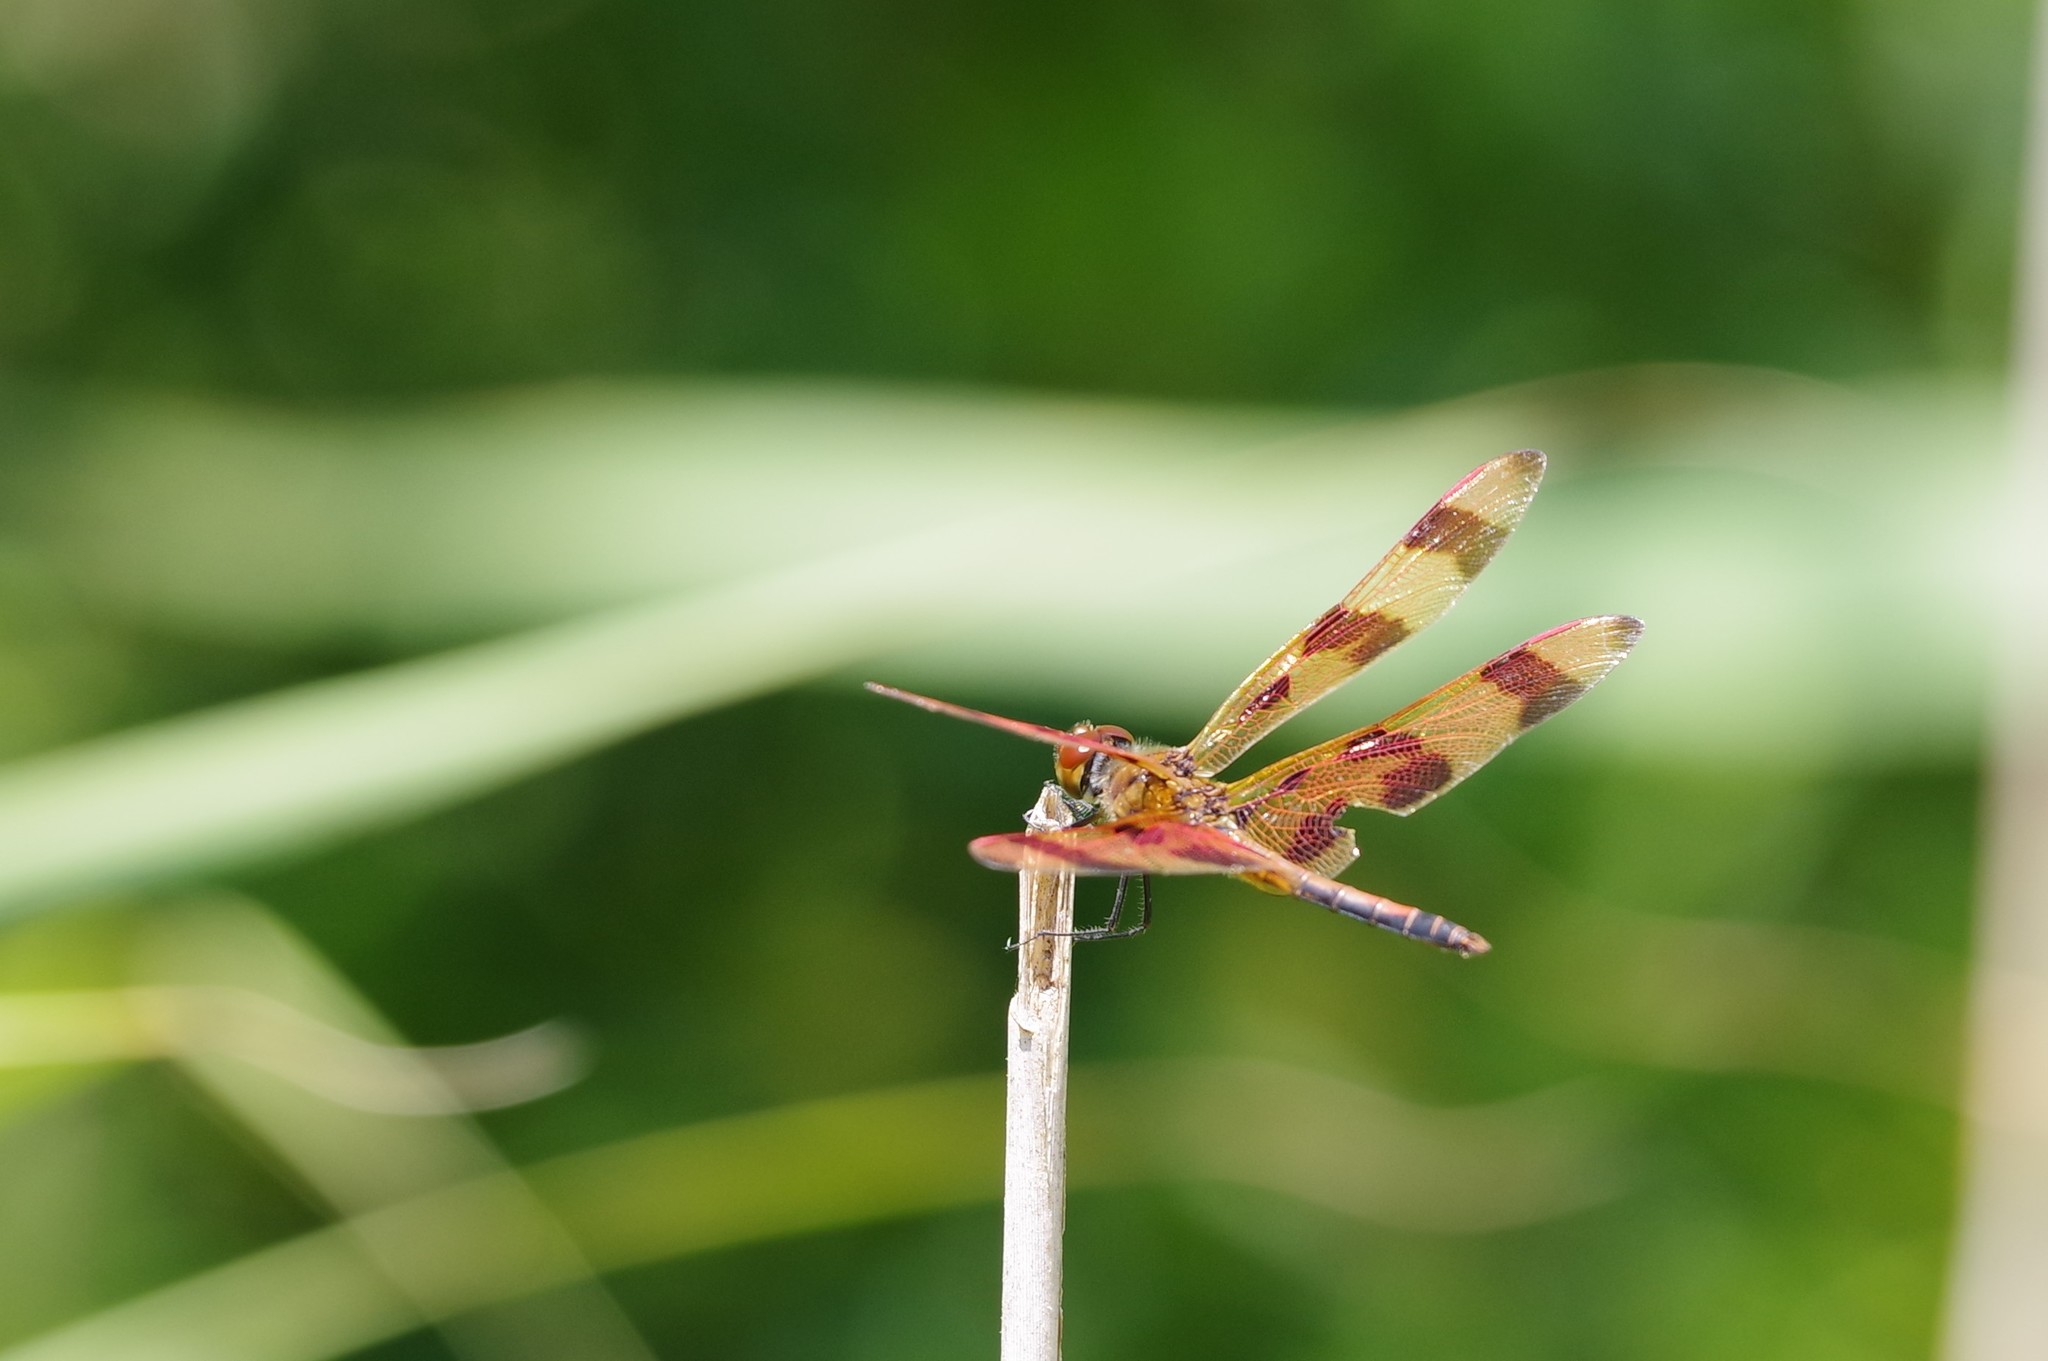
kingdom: Animalia
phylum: Arthropoda
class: Insecta
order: Odonata
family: Libellulidae
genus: Celithemis
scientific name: Celithemis eponina
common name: Halloween pennant
